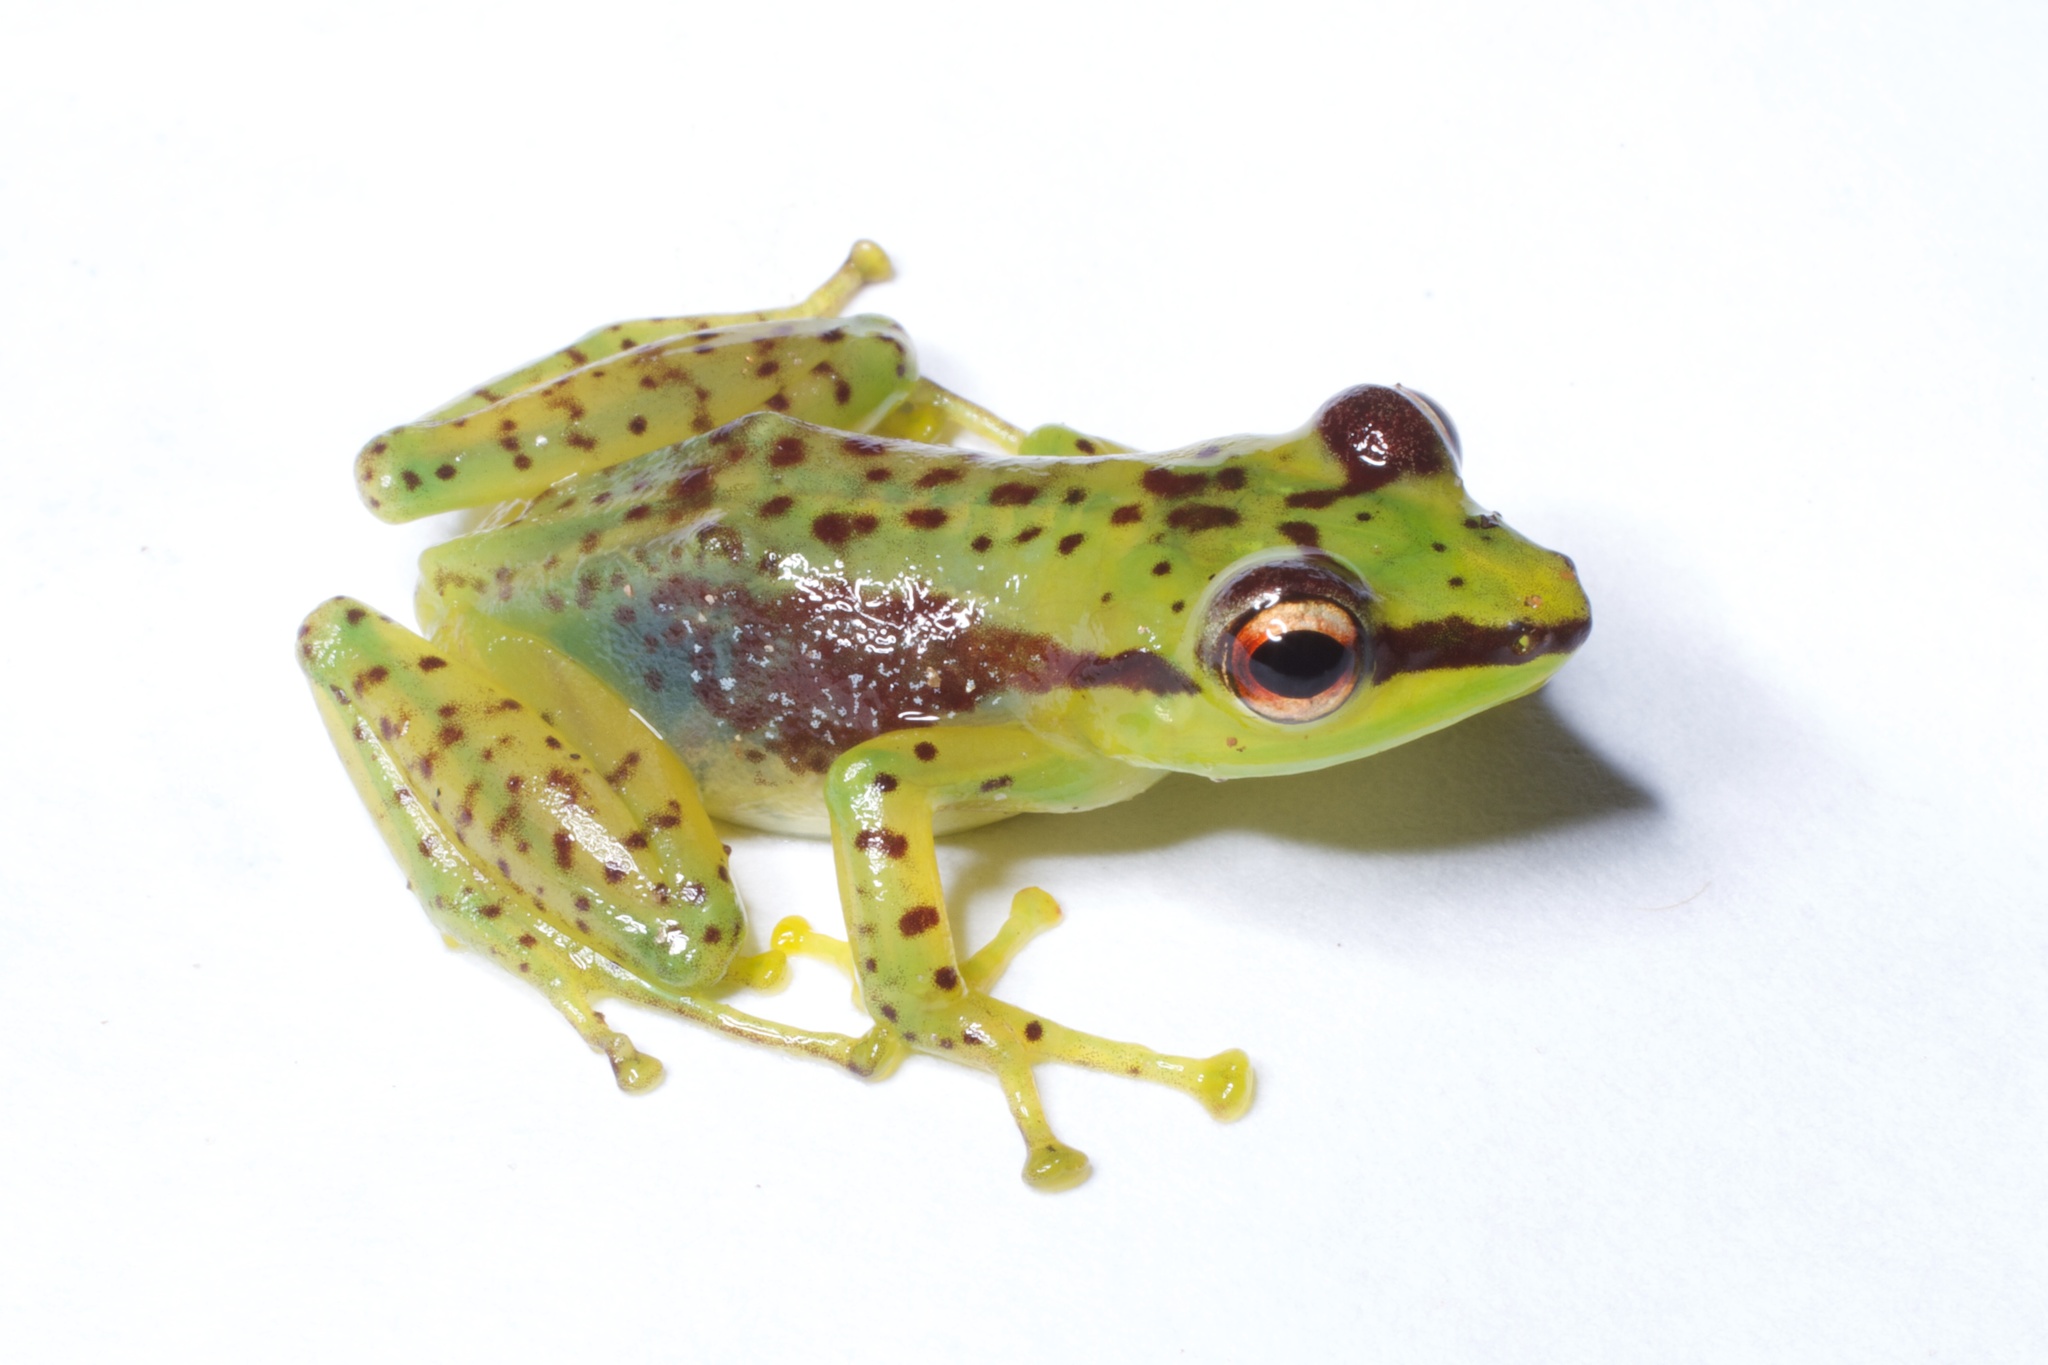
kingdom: Animalia
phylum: Chordata
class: Amphibia
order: Anura
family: Mantellidae
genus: Guibemantis
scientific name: Guibemantis pulcher
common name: Tsarafidy madagascar frog
